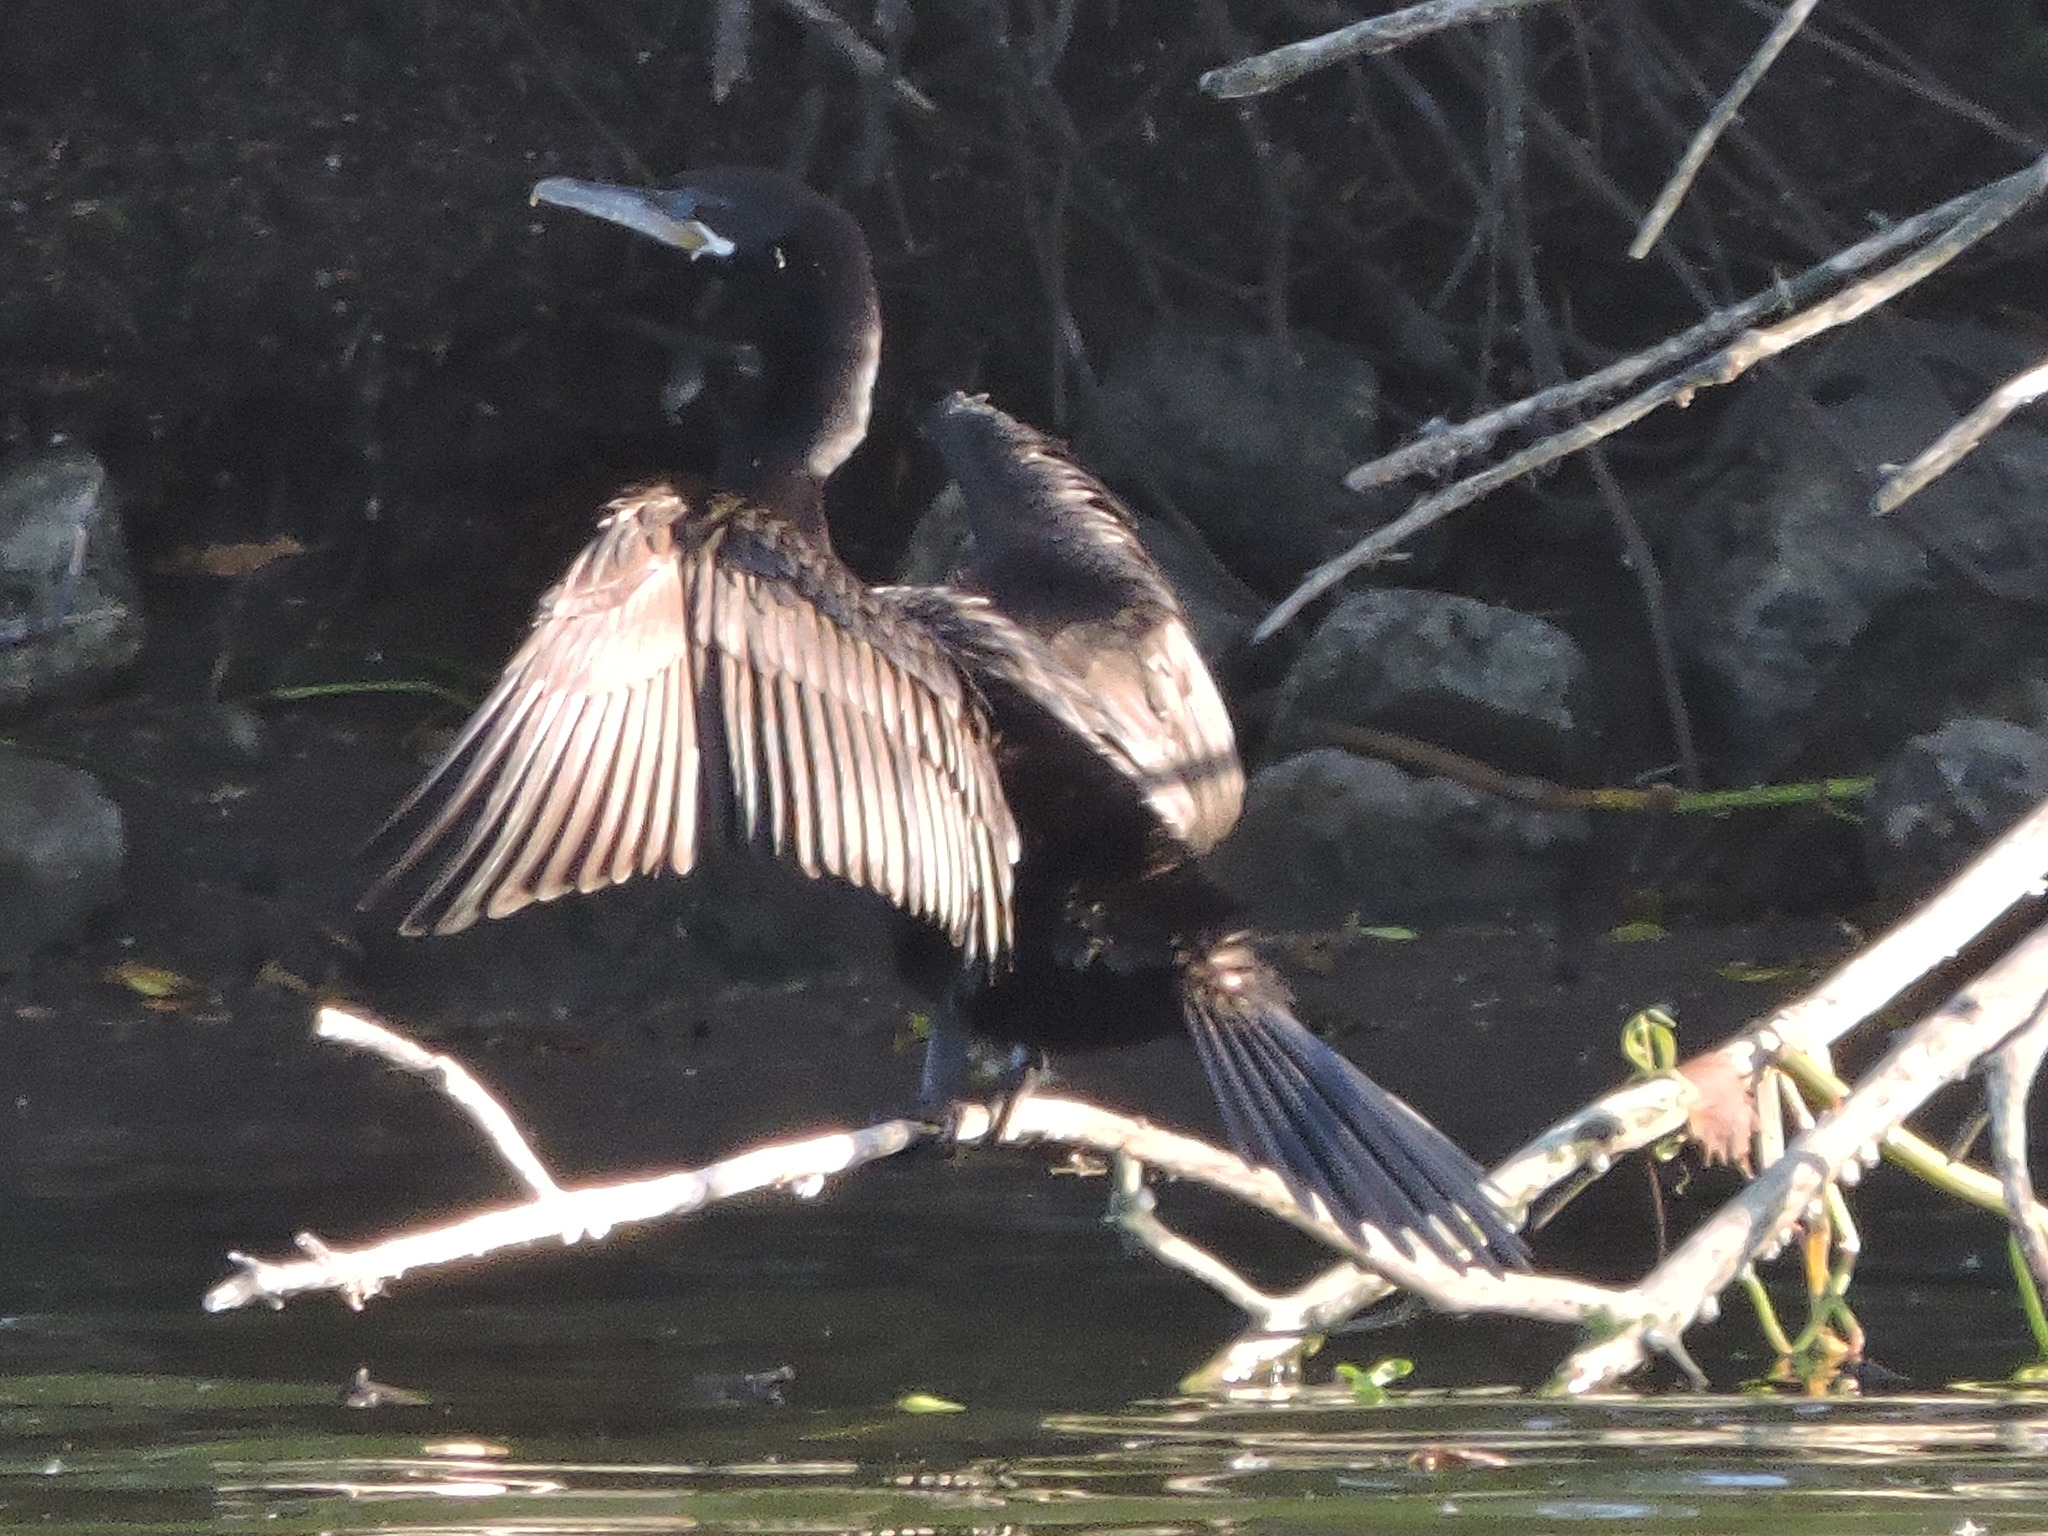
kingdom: Animalia
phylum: Chordata
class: Aves
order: Suliformes
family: Phalacrocoracidae
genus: Phalacrocorax
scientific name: Phalacrocorax brasilianus
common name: Neotropic cormorant
